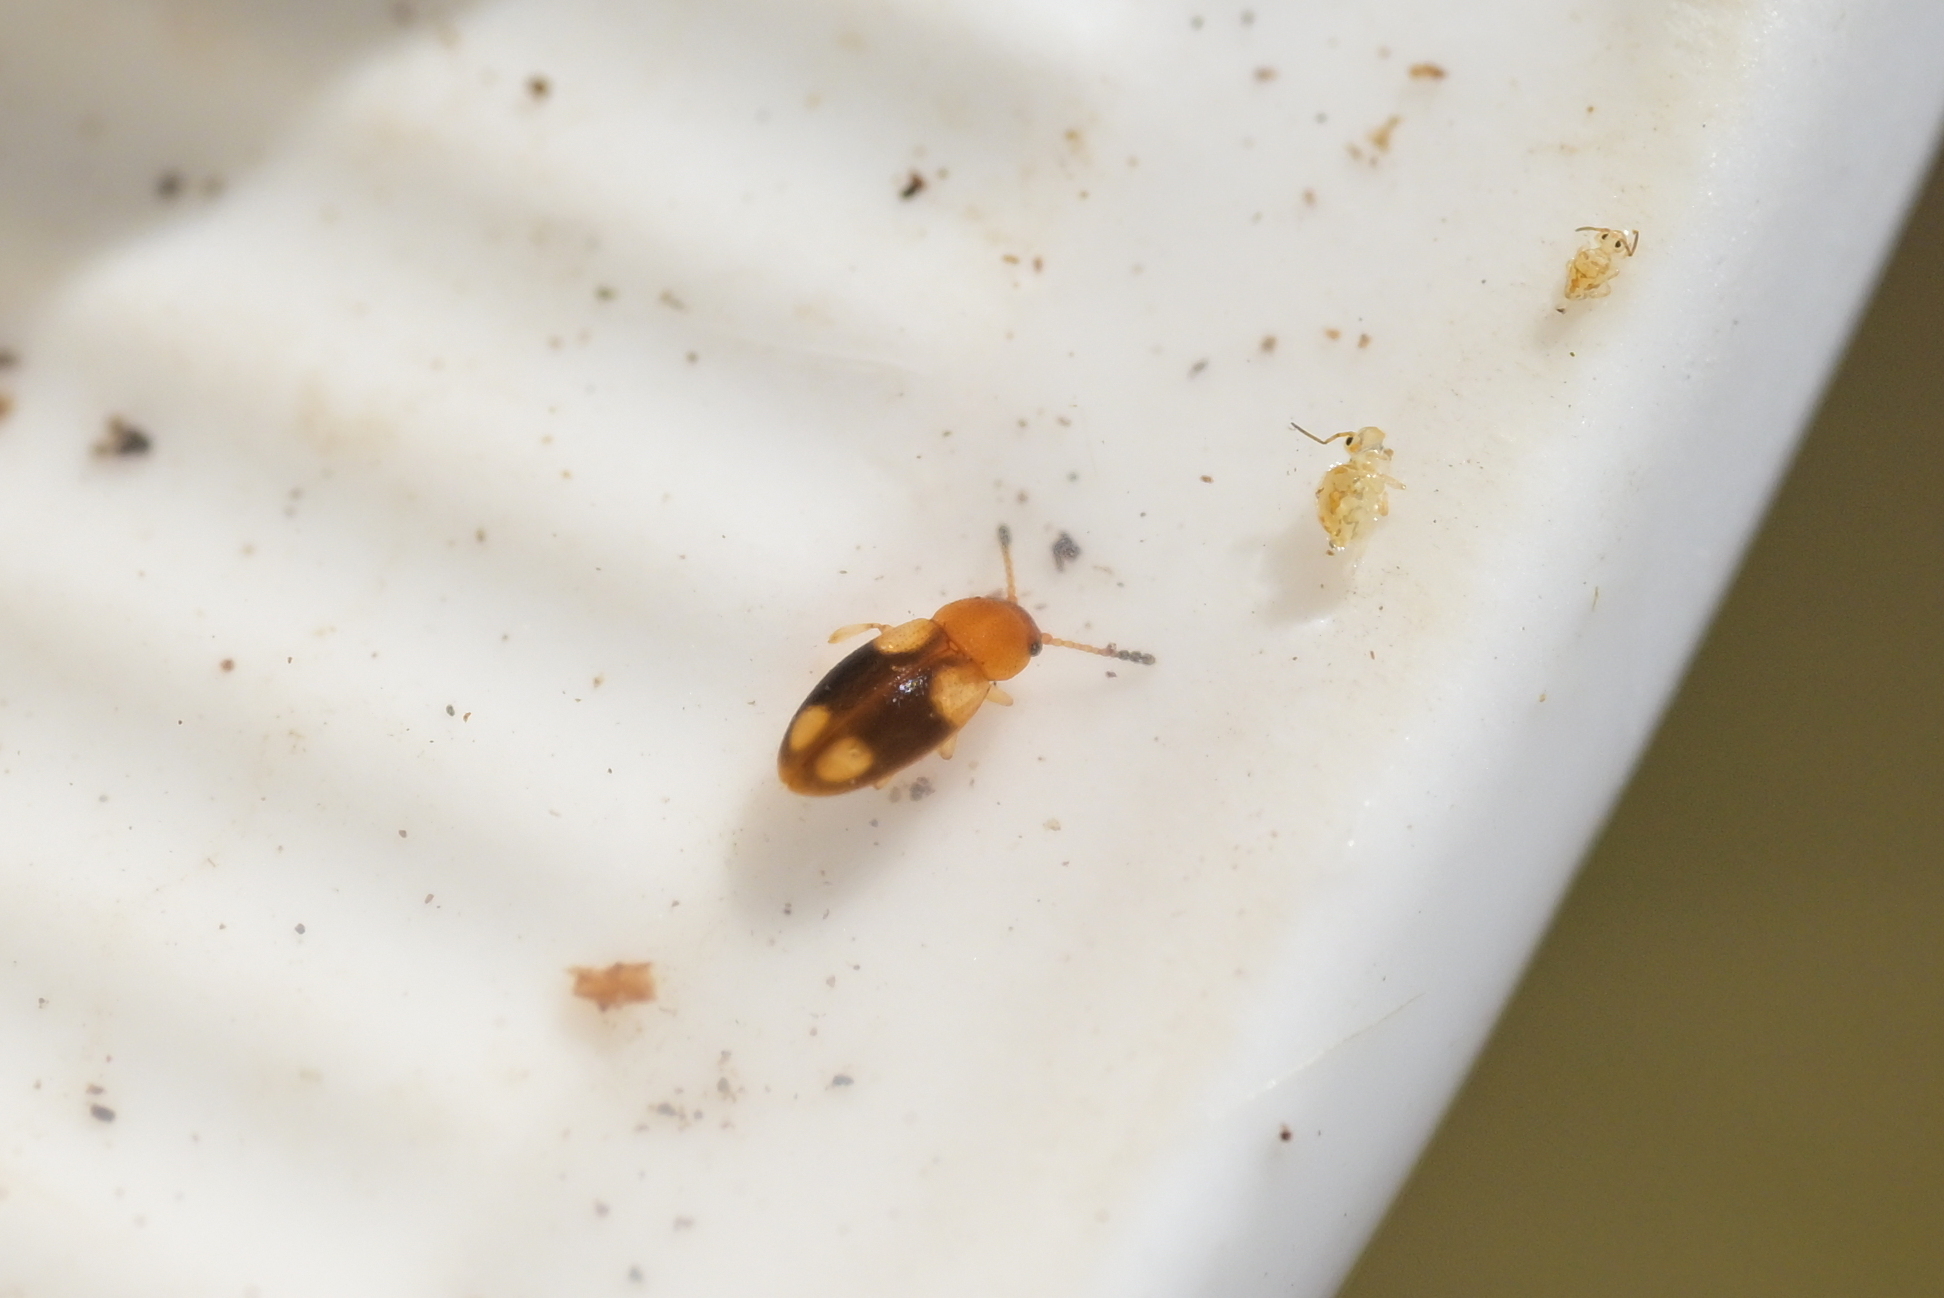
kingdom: Animalia
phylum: Arthropoda
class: Insecta
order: Coleoptera
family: Erotylidae
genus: Loberus
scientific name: Loberus nitens
